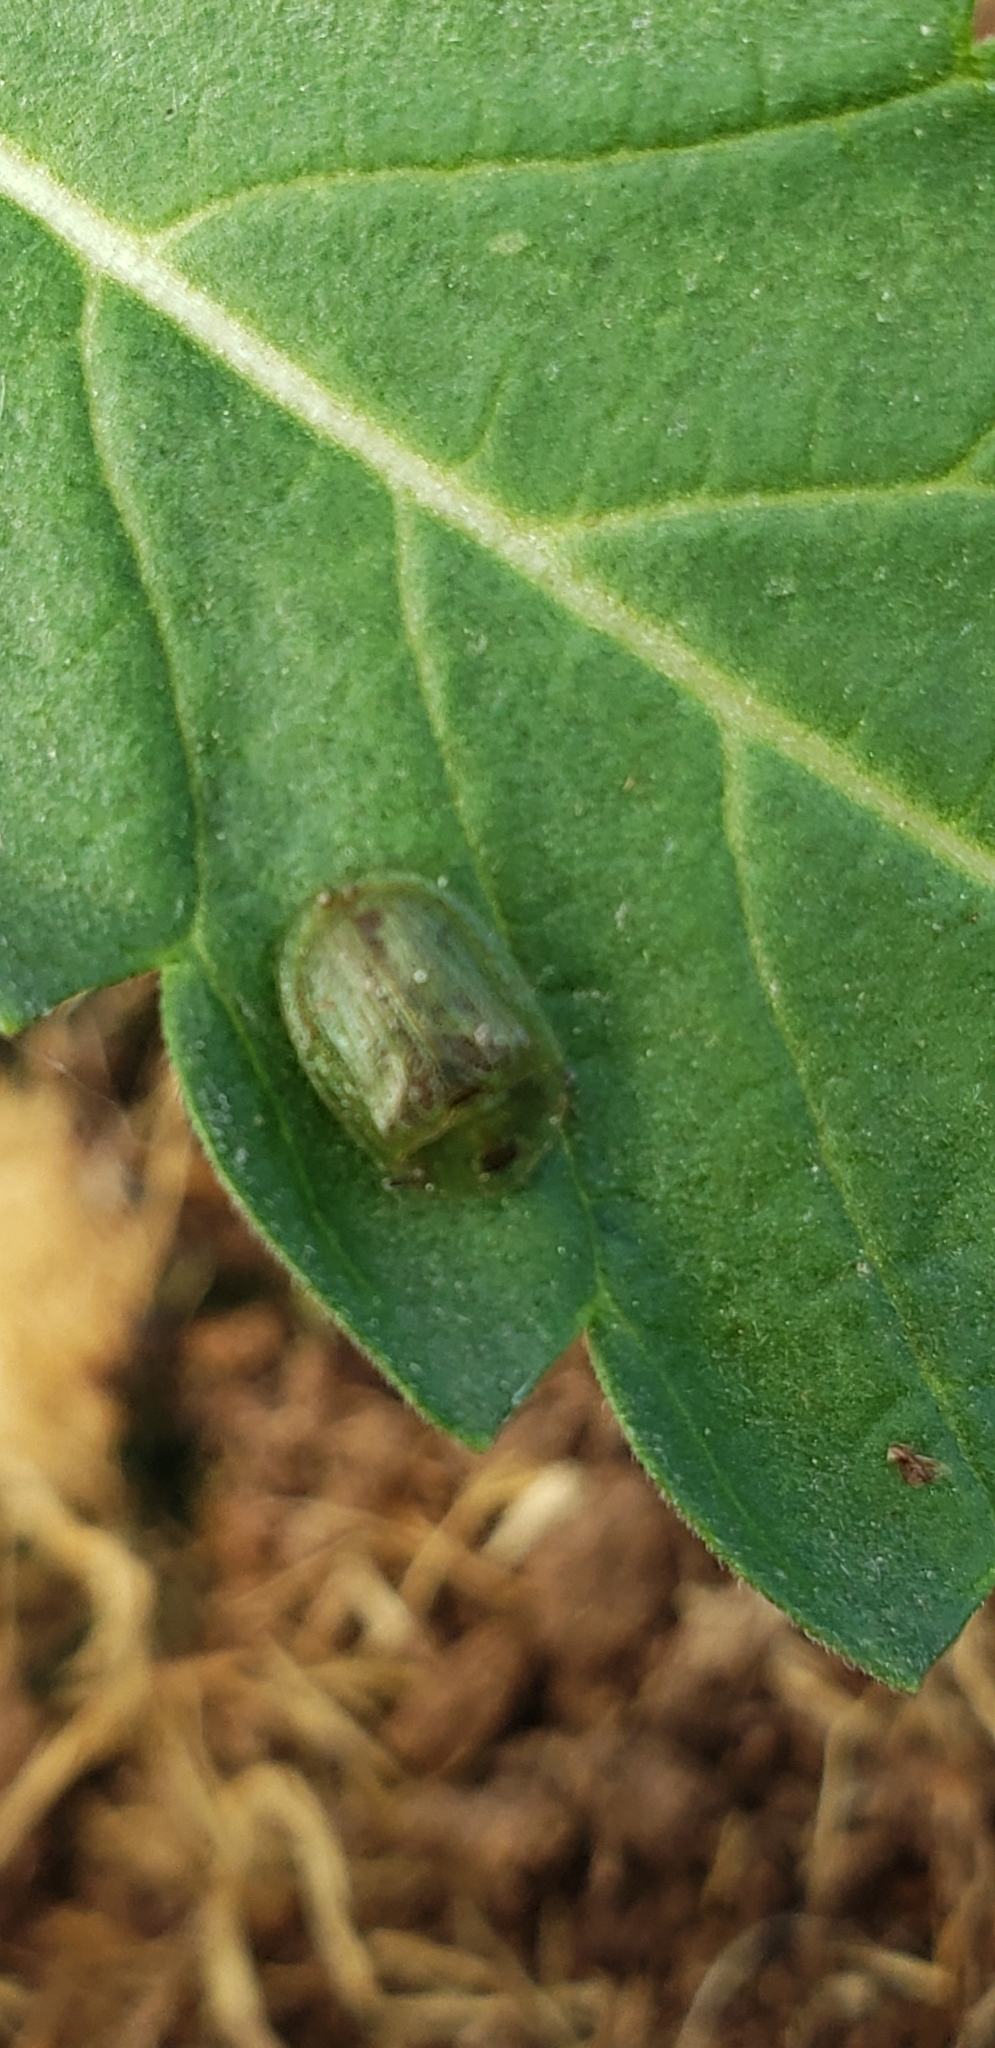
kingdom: Animalia
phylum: Arthropoda
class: Insecta
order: Coleoptera
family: Chrysomelidae
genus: Gratiana
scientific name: Gratiana pallidula
